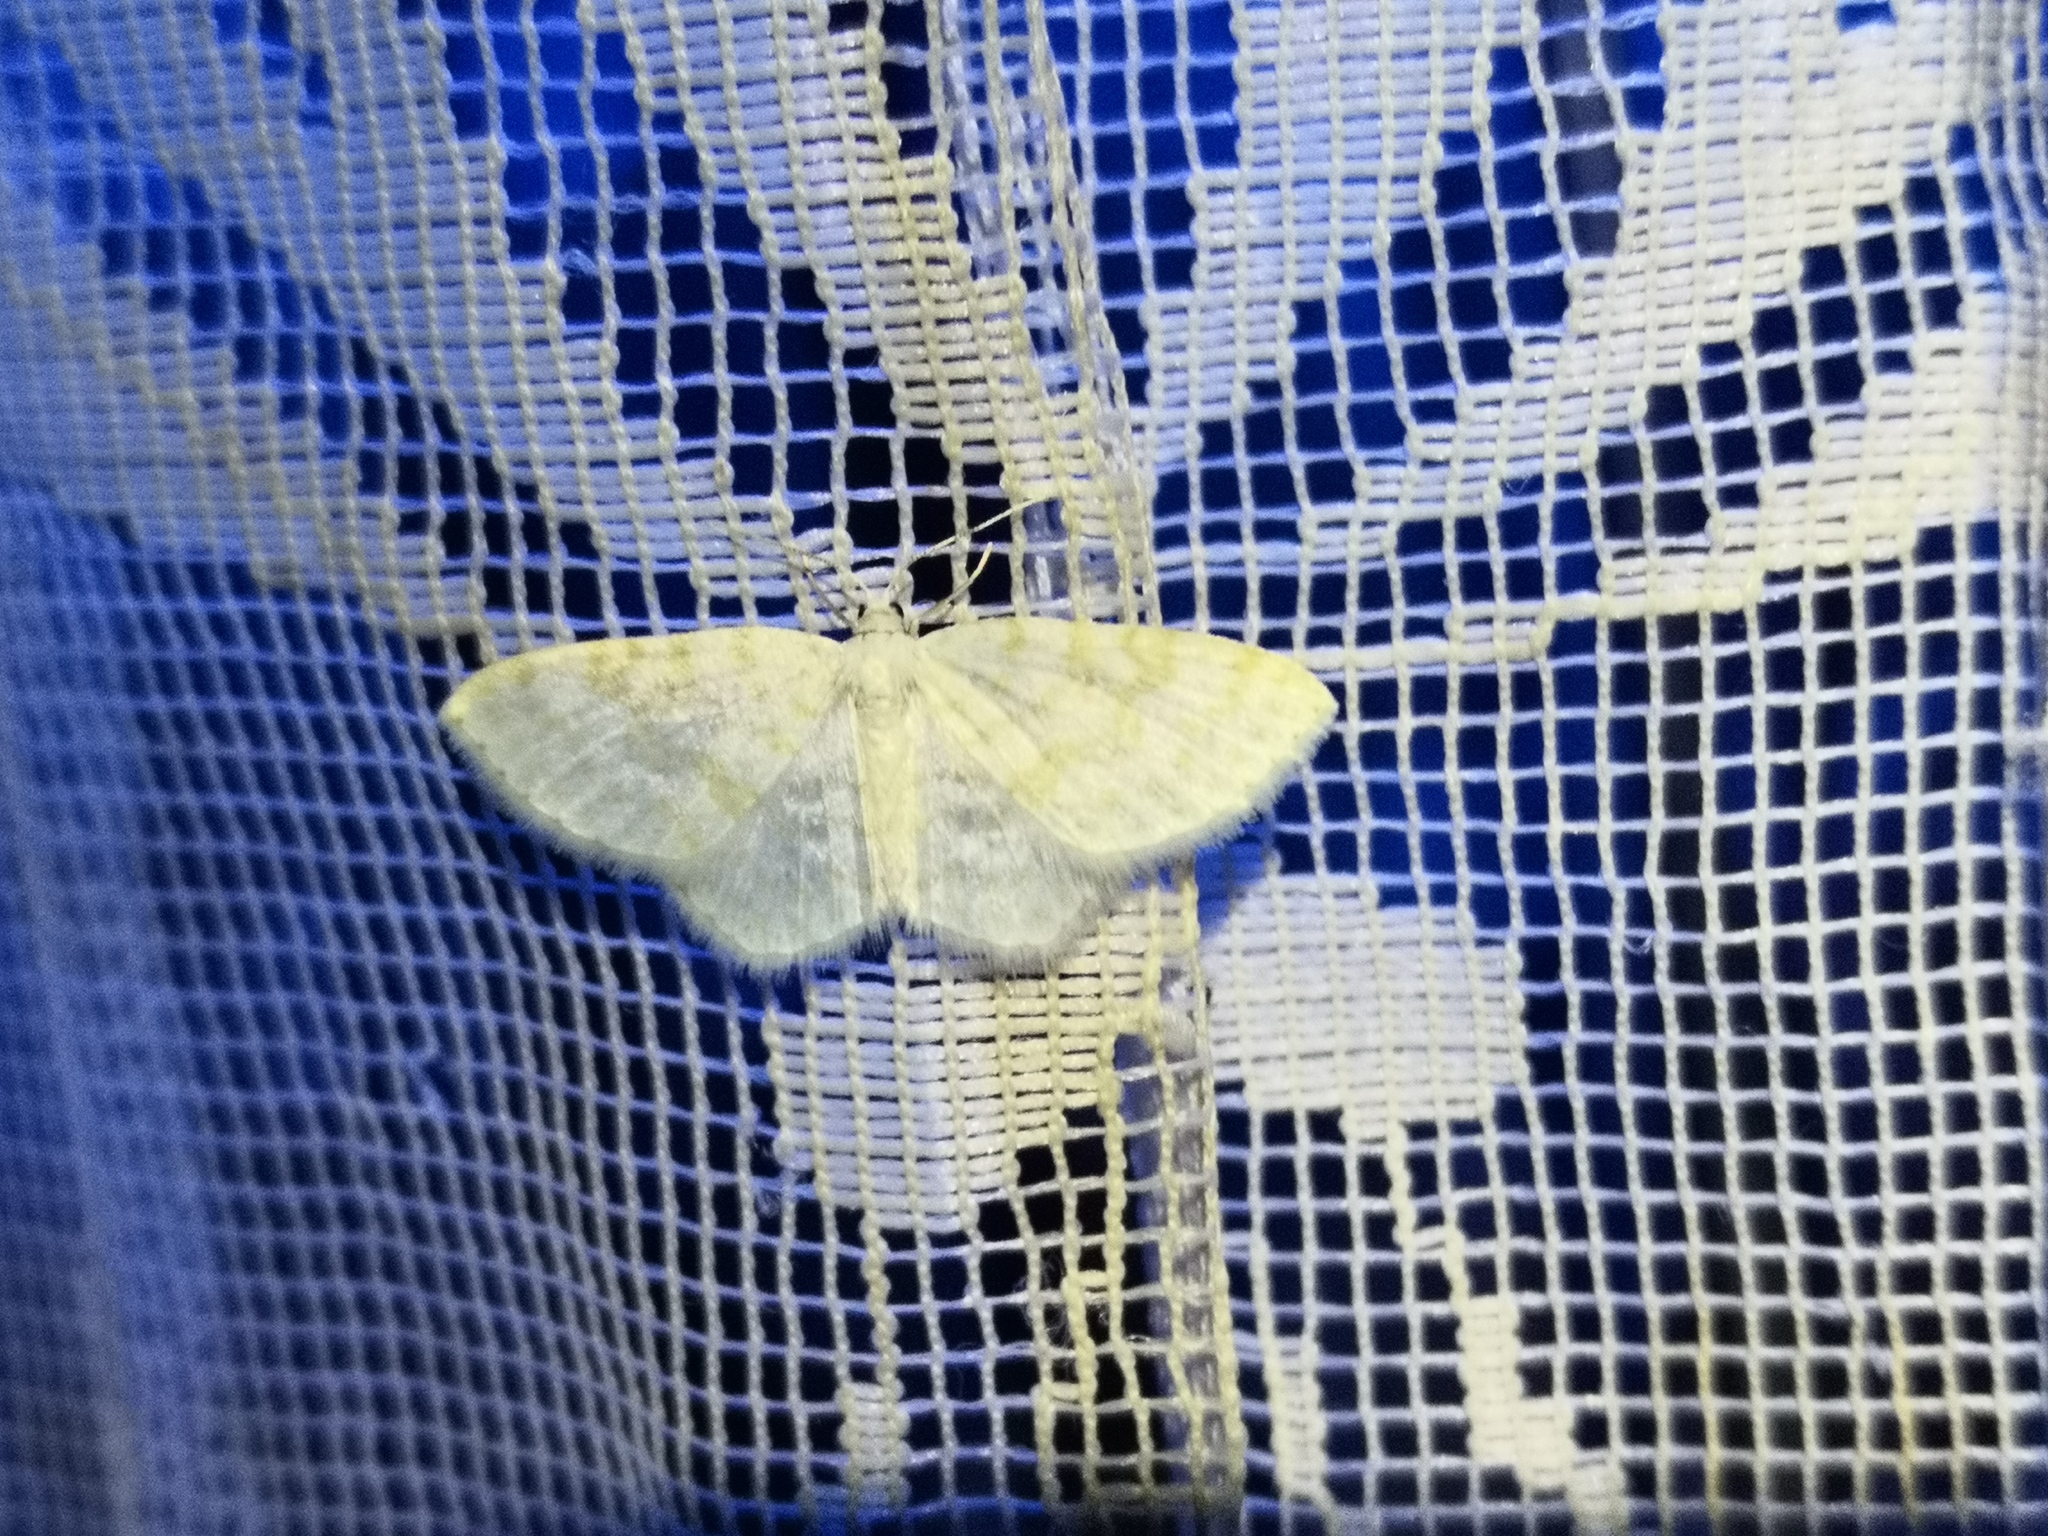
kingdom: Animalia
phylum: Arthropoda
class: Insecta
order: Lepidoptera
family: Geometridae
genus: Asthena
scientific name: Asthena albulata
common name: Small white wave
